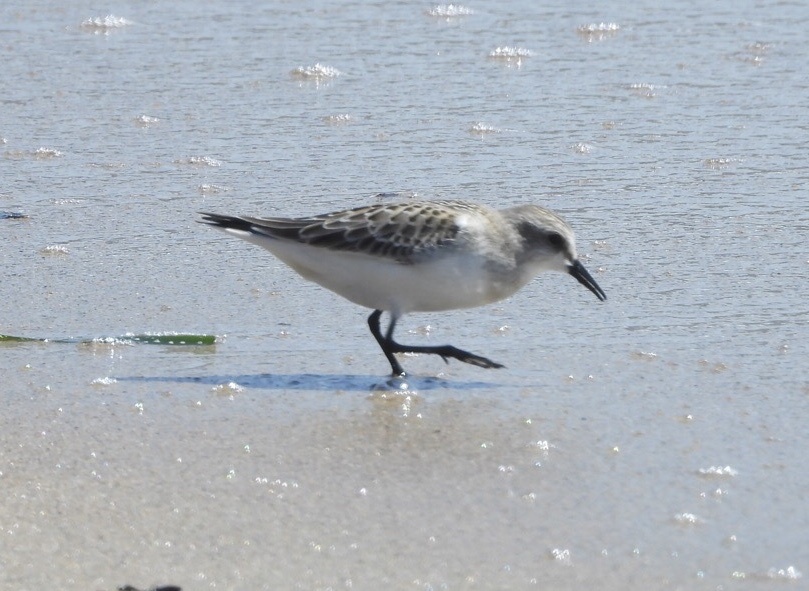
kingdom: Animalia
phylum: Chordata
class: Aves
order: Charadriiformes
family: Scolopacidae
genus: Calidris
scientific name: Calidris alba
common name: Sanderling
